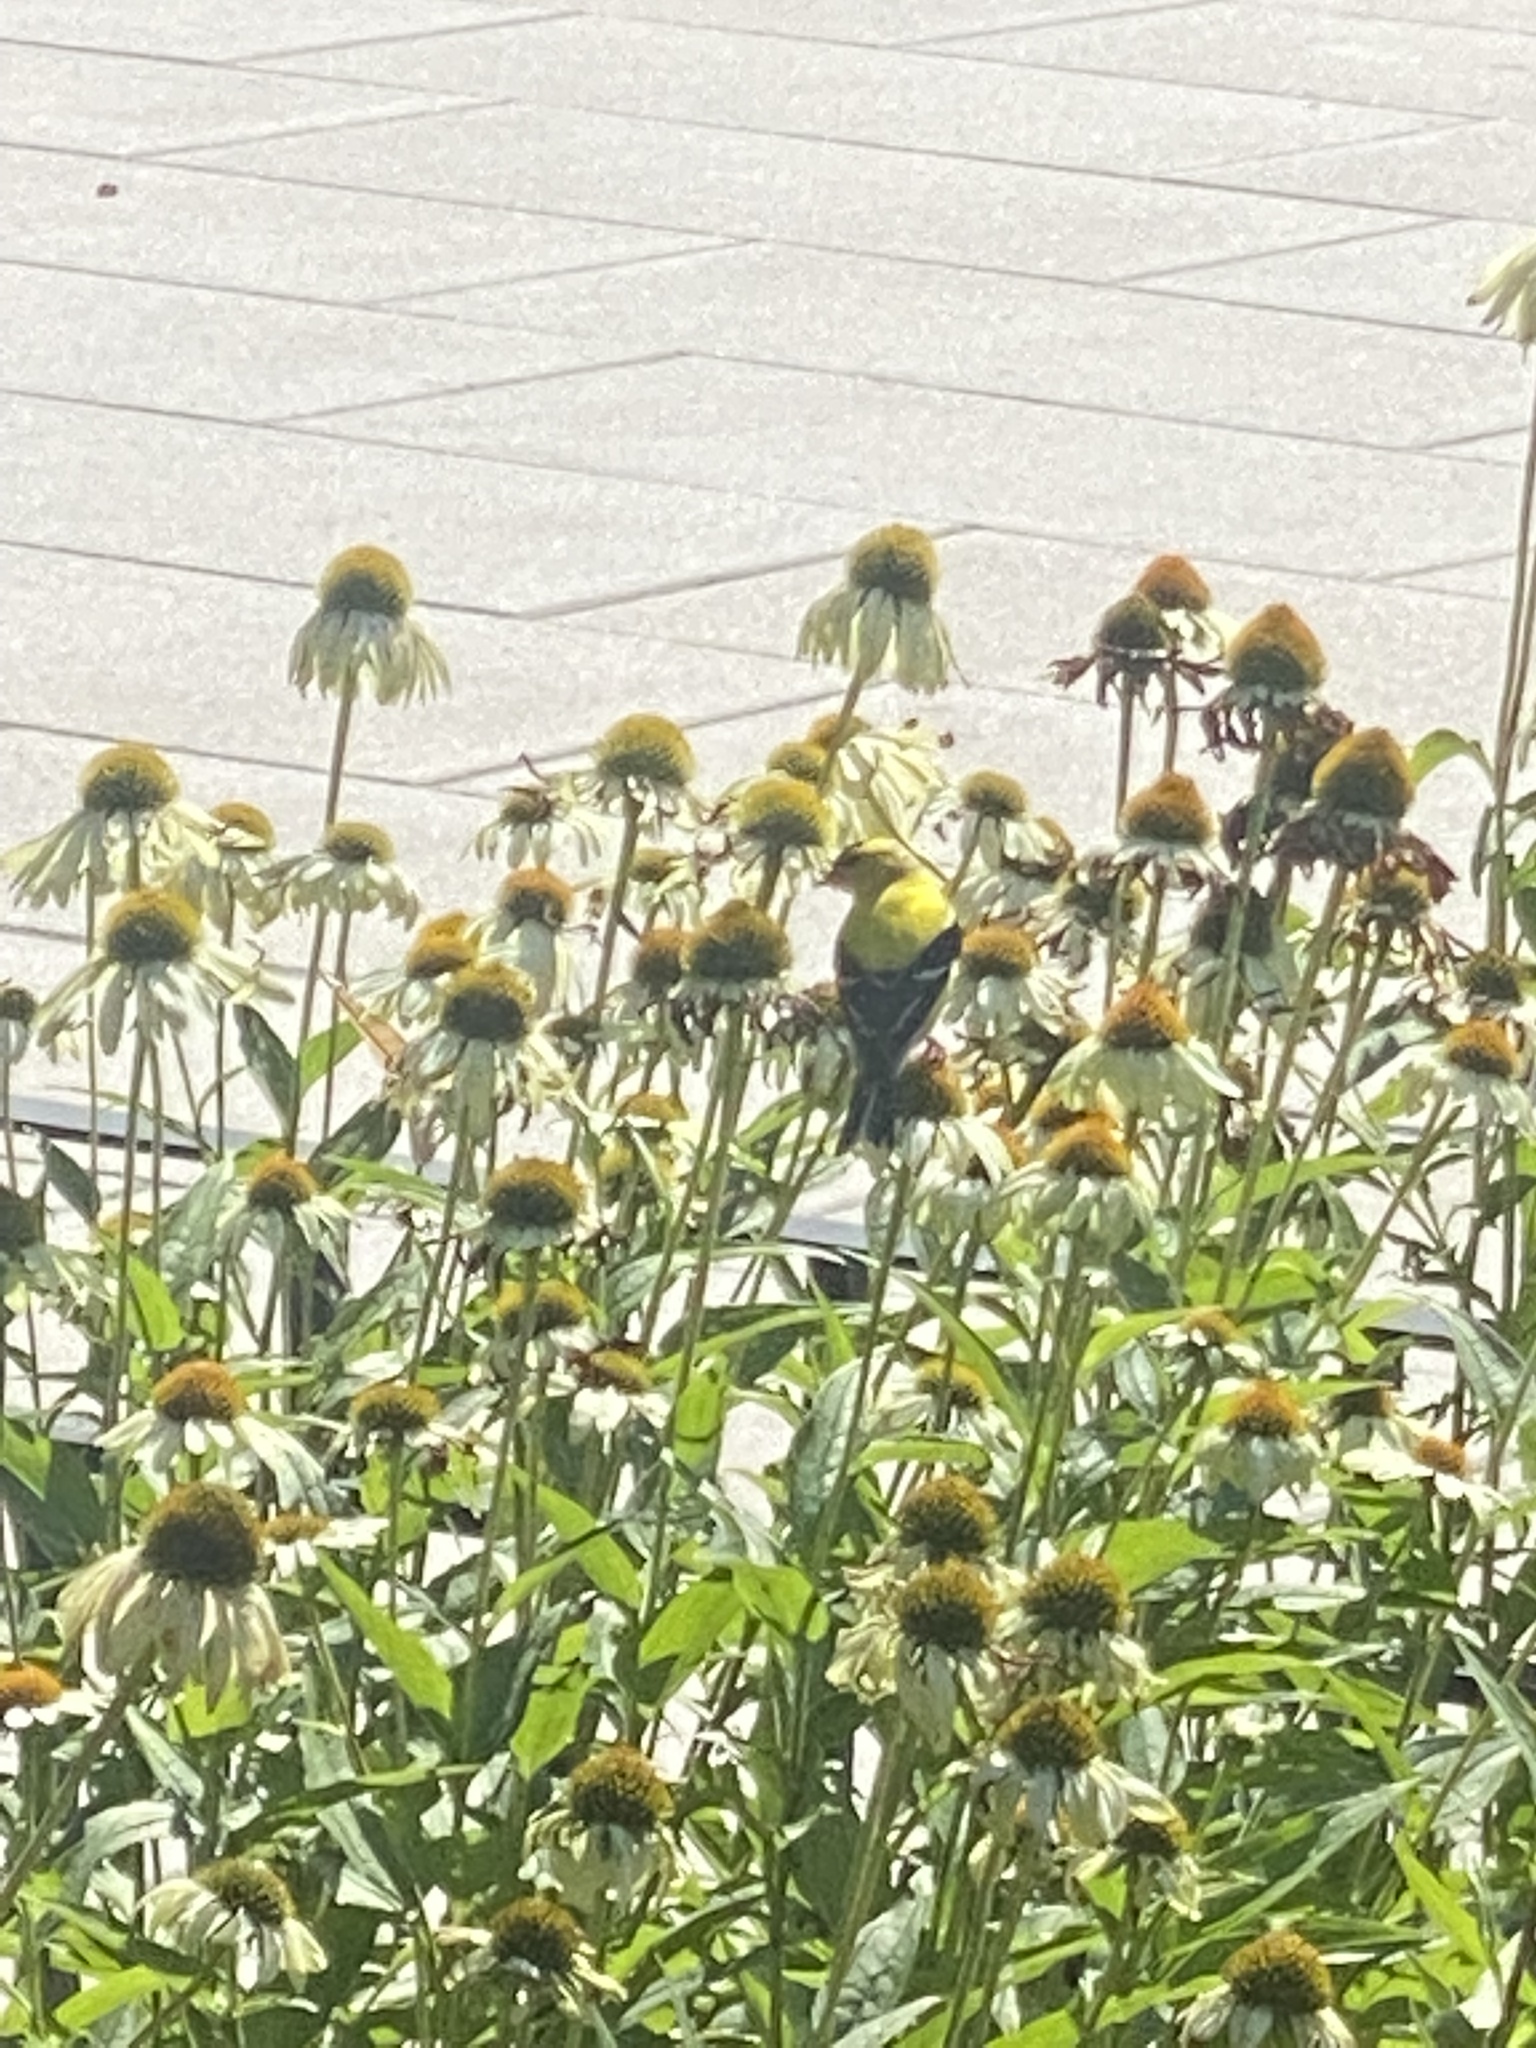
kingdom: Animalia
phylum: Chordata
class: Aves
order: Passeriformes
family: Fringillidae
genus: Spinus
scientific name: Spinus tristis
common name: American goldfinch
